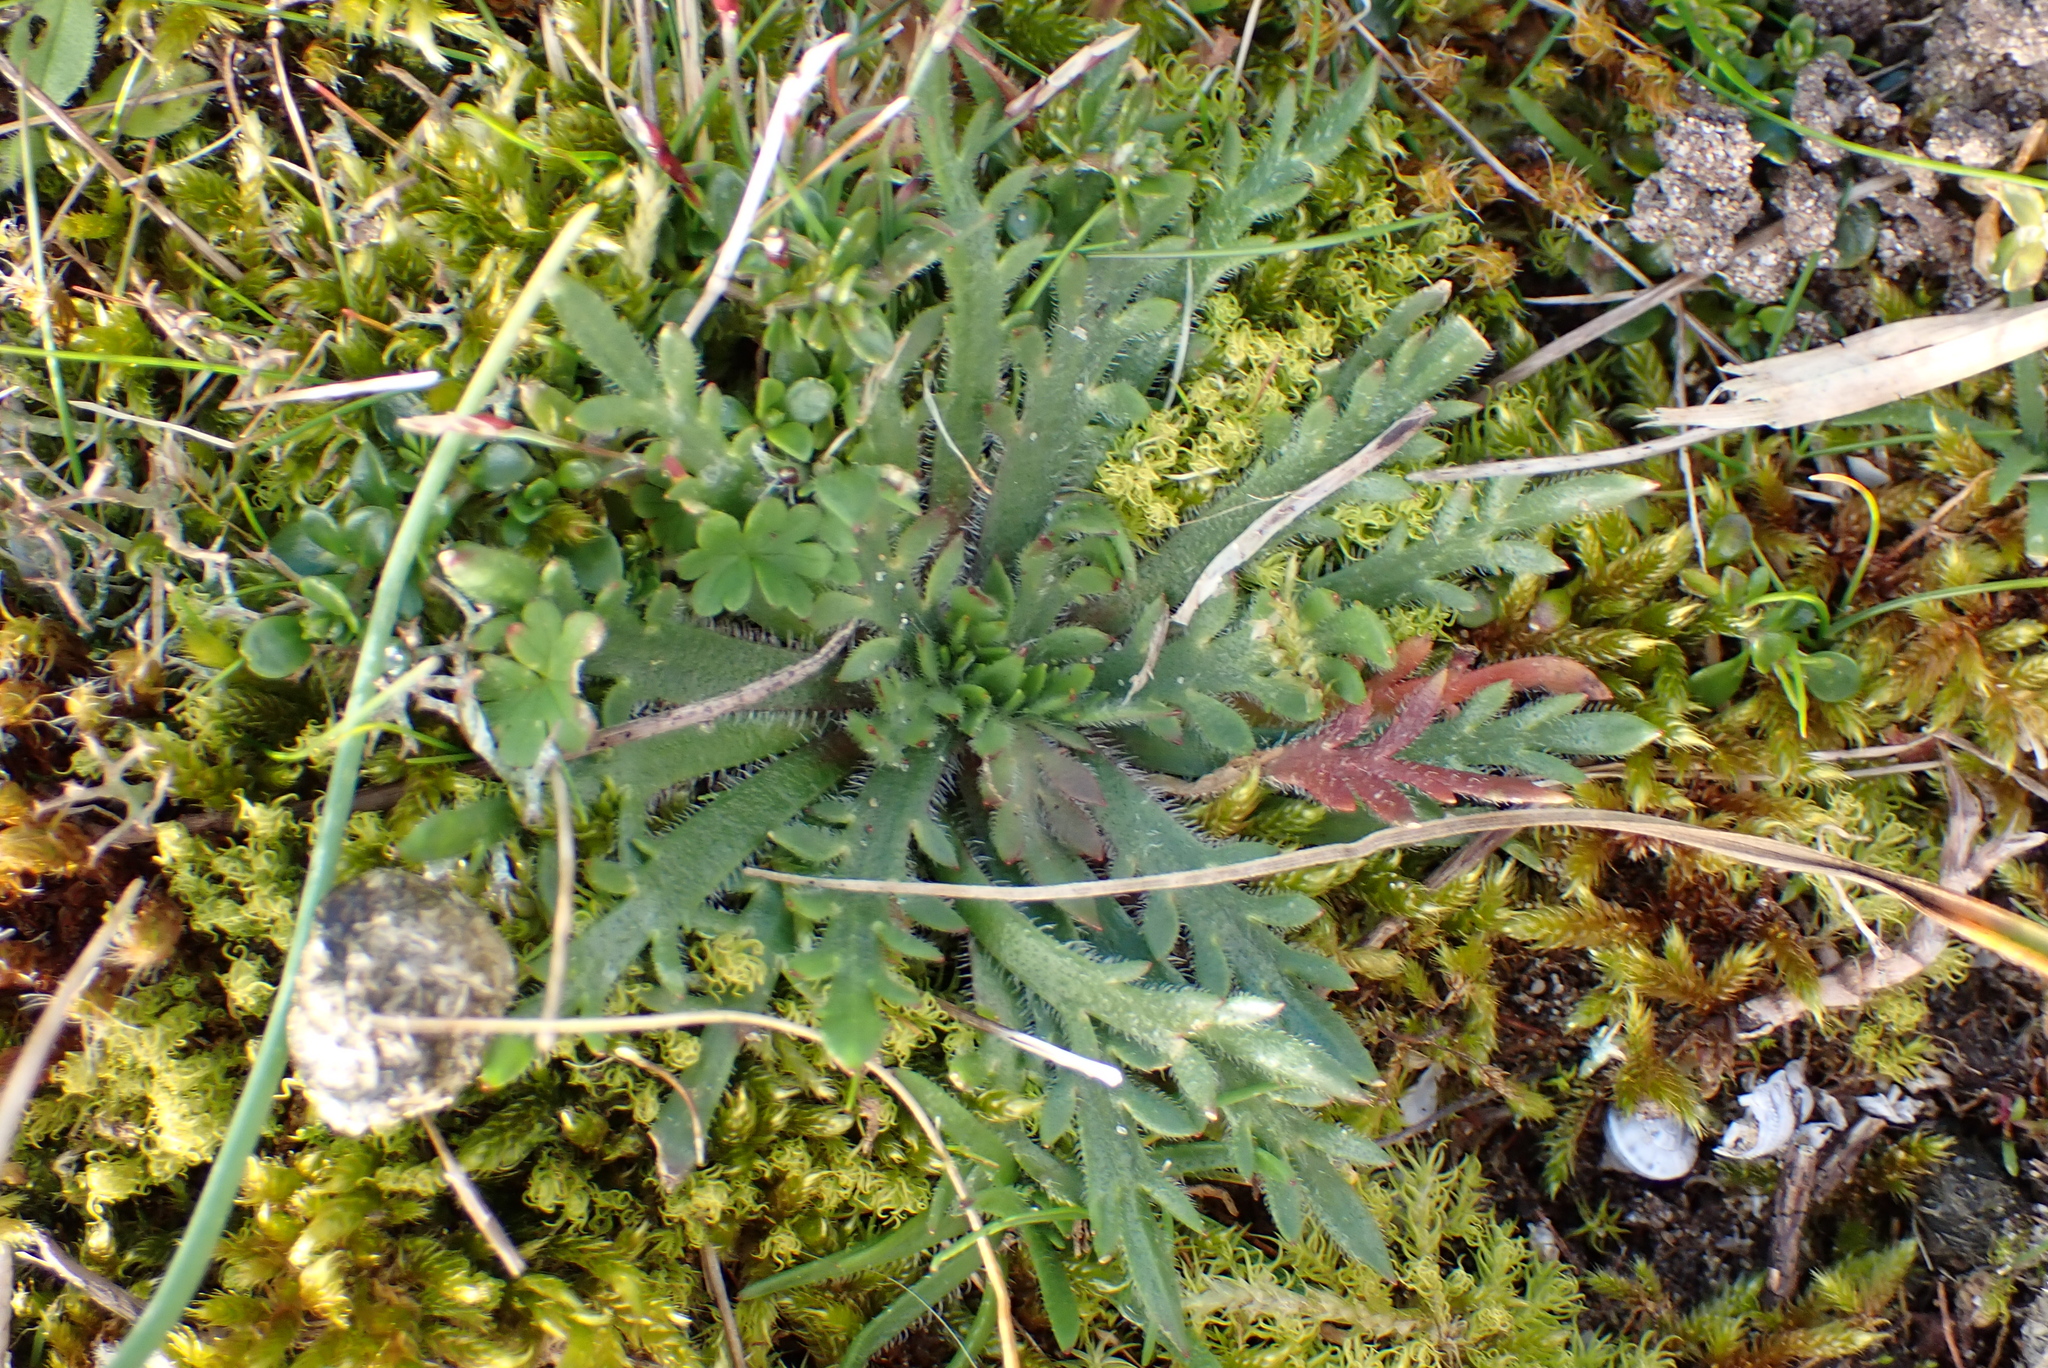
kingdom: Plantae
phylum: Tracheophyta
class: Magnoliopsida
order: Lamiales
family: Plantaginaceae
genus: Plantago
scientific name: Plantago coronopus
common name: Buck's-horn plantain
